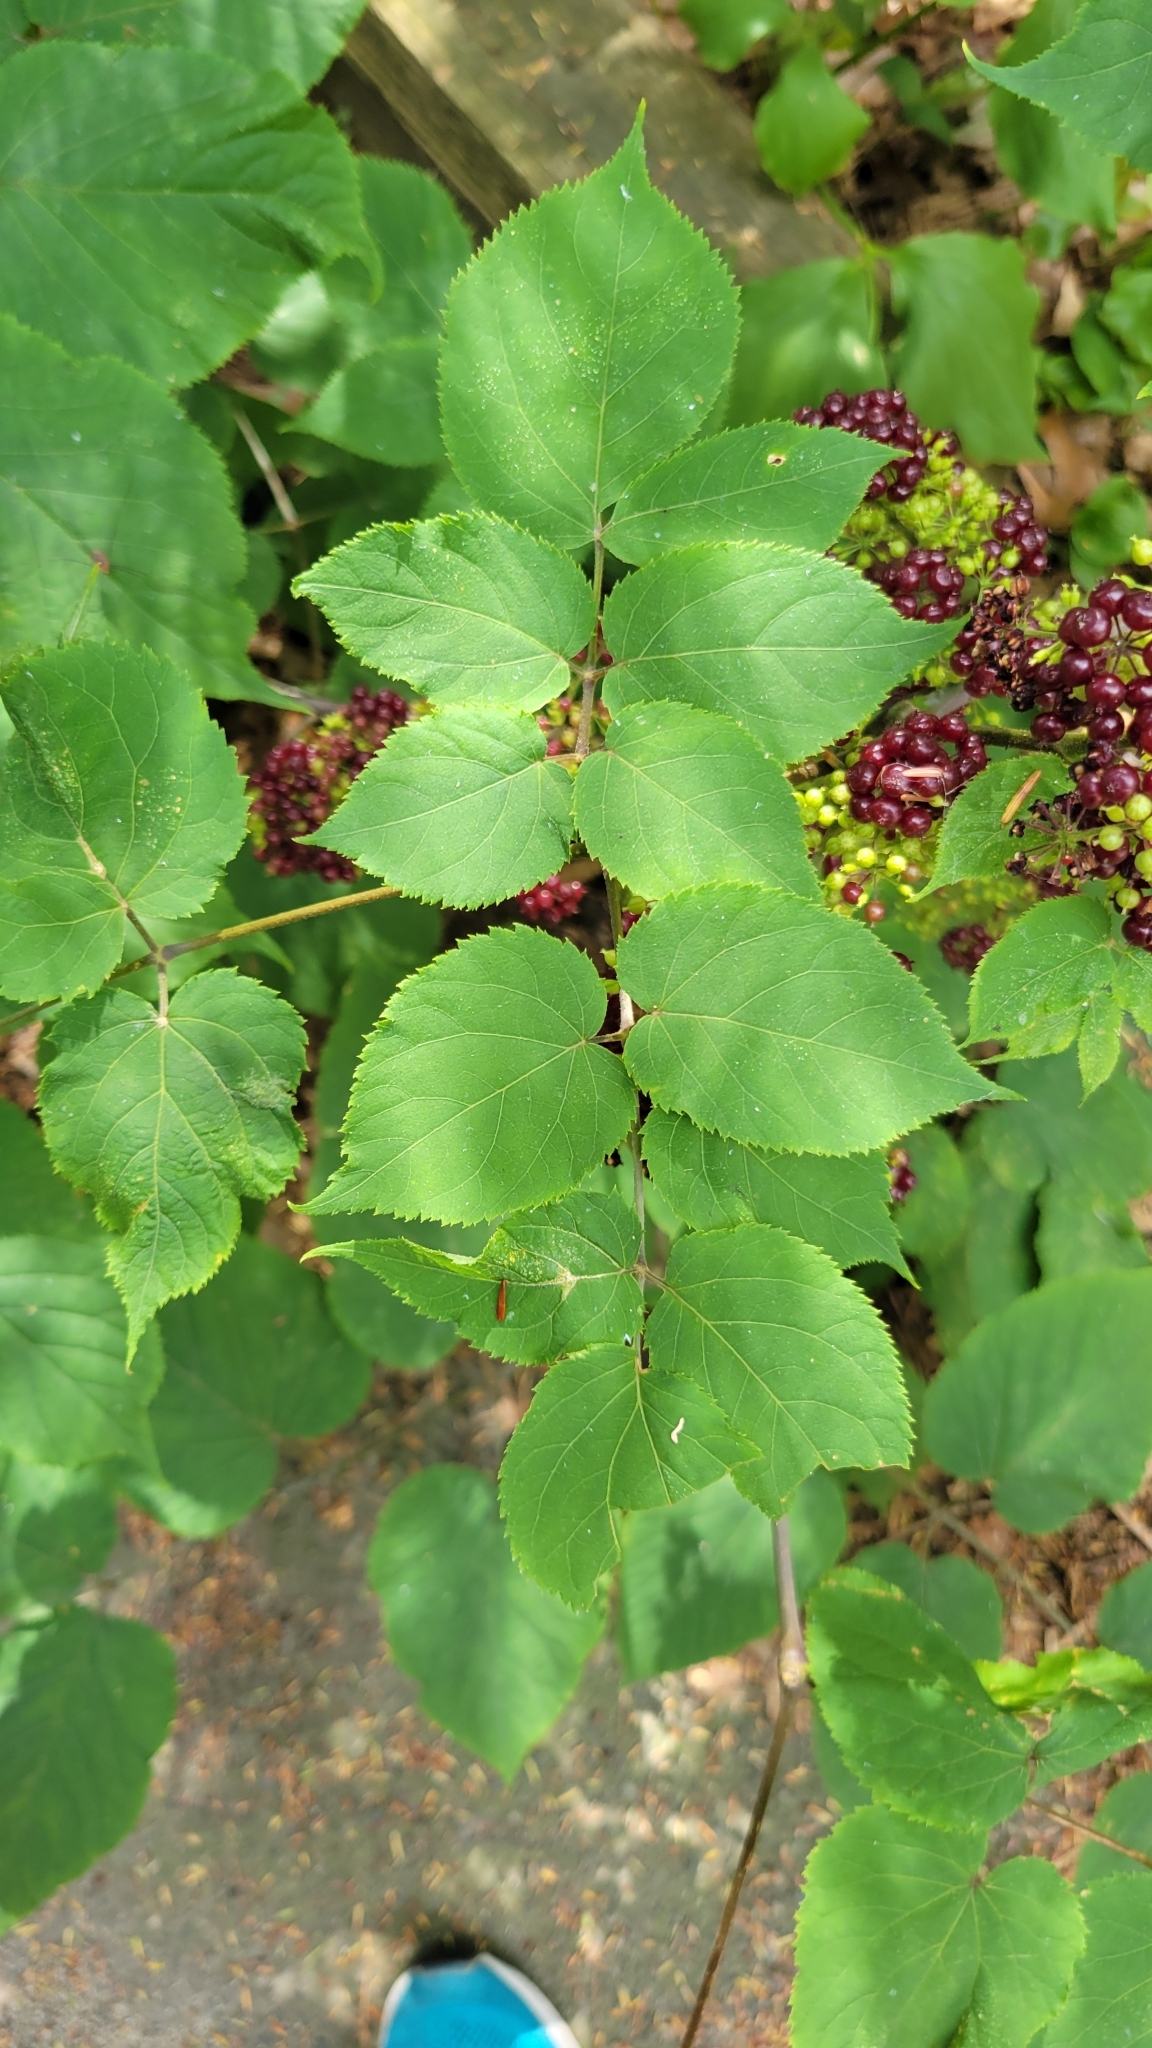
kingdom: Plantae
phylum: Tracheophyta
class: Magnoliopsida
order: Apiales
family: Araliaceae
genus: Aralia
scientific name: Aralia racemosa
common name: American-spikenard
